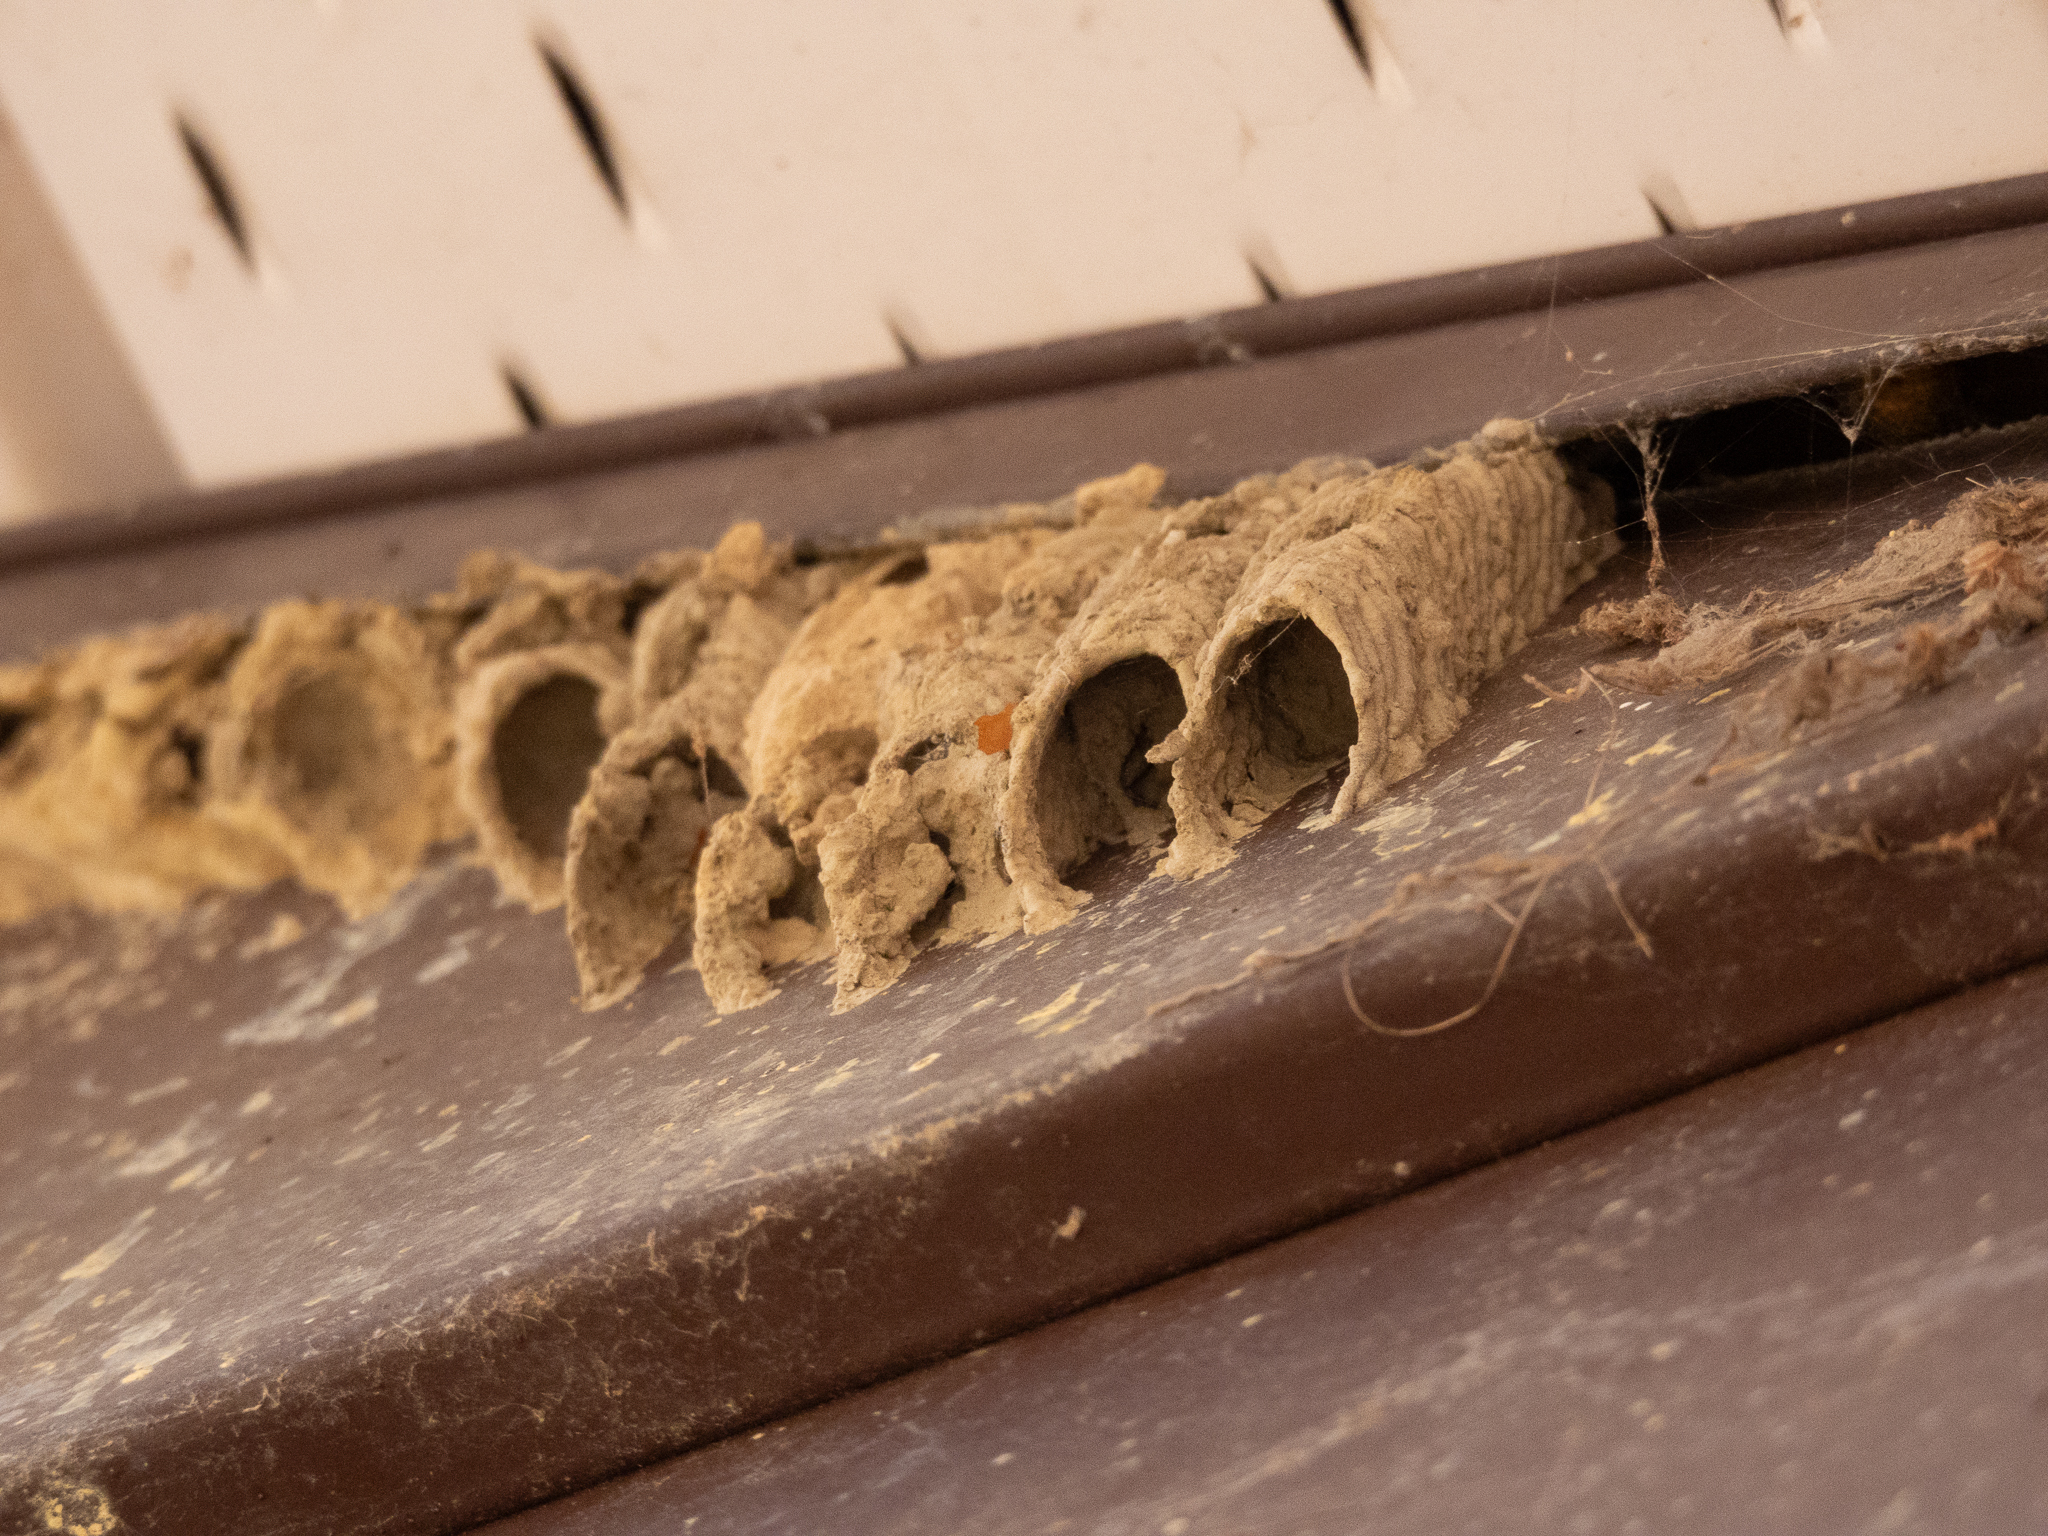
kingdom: Animalia
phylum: Arthropoda
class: Insecta
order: Hymenoptera
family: Crabronidae
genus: Trypoxylon
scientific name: Trypoxylon politum
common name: Organ-pipe mud-dauber wasp
